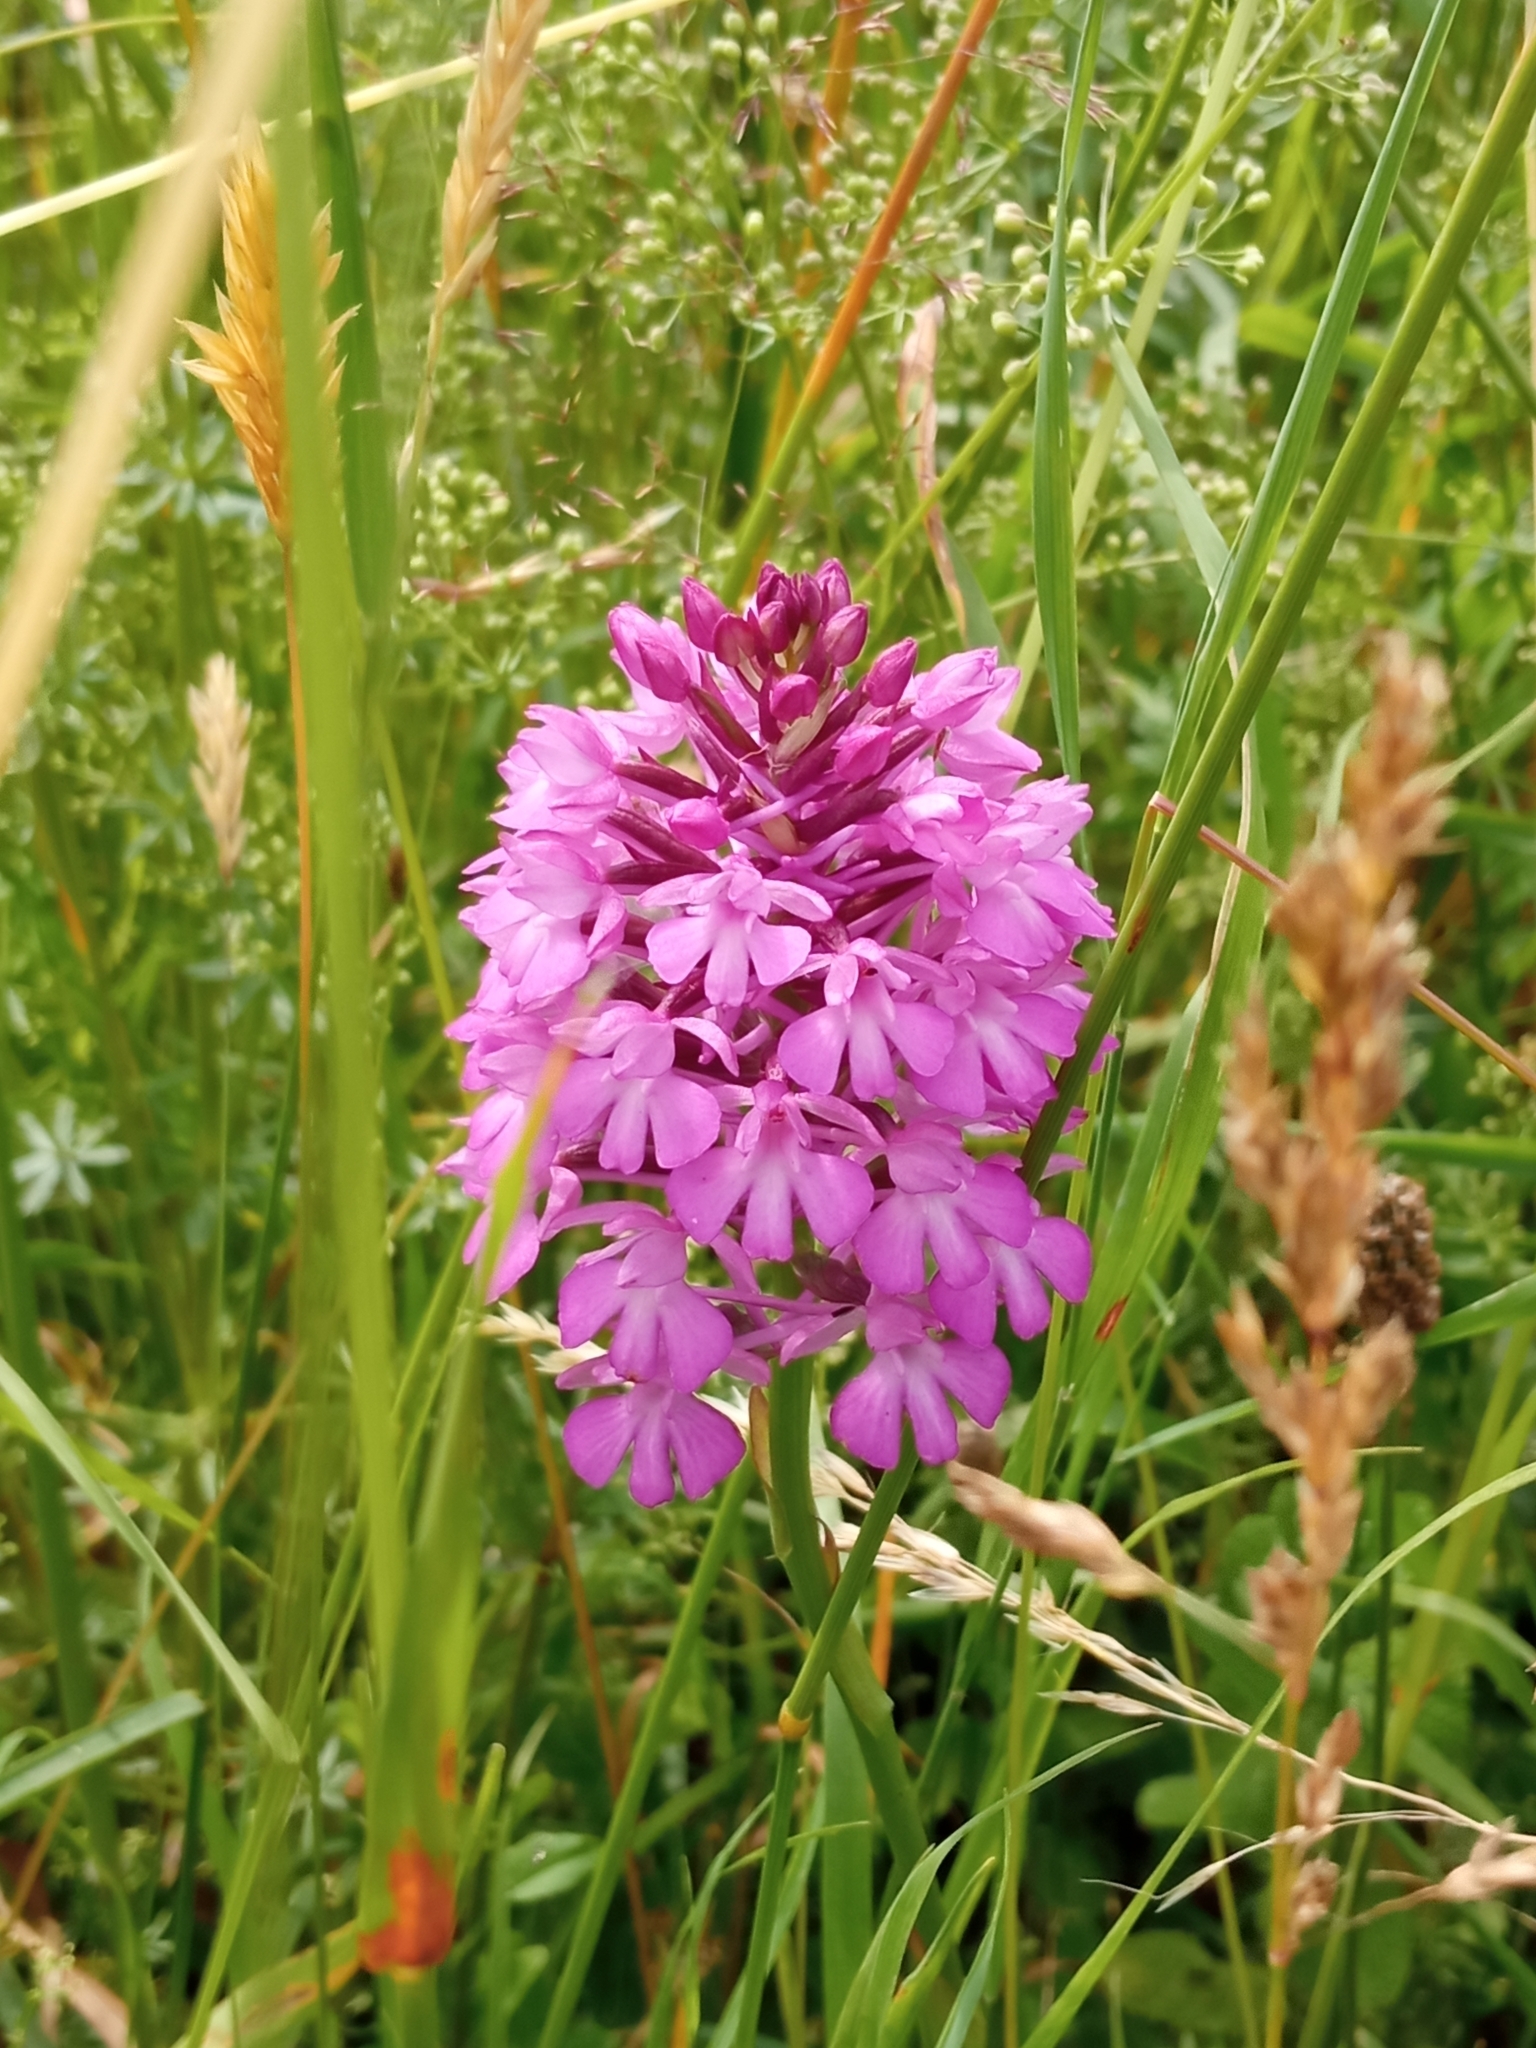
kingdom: Plantae
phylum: Tracheophyta
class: Liliopsida
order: Asparagales
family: Orchidaceae
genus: Anacamptis
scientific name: Anacamptis pyramidalis
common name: Pyramidal orchid
